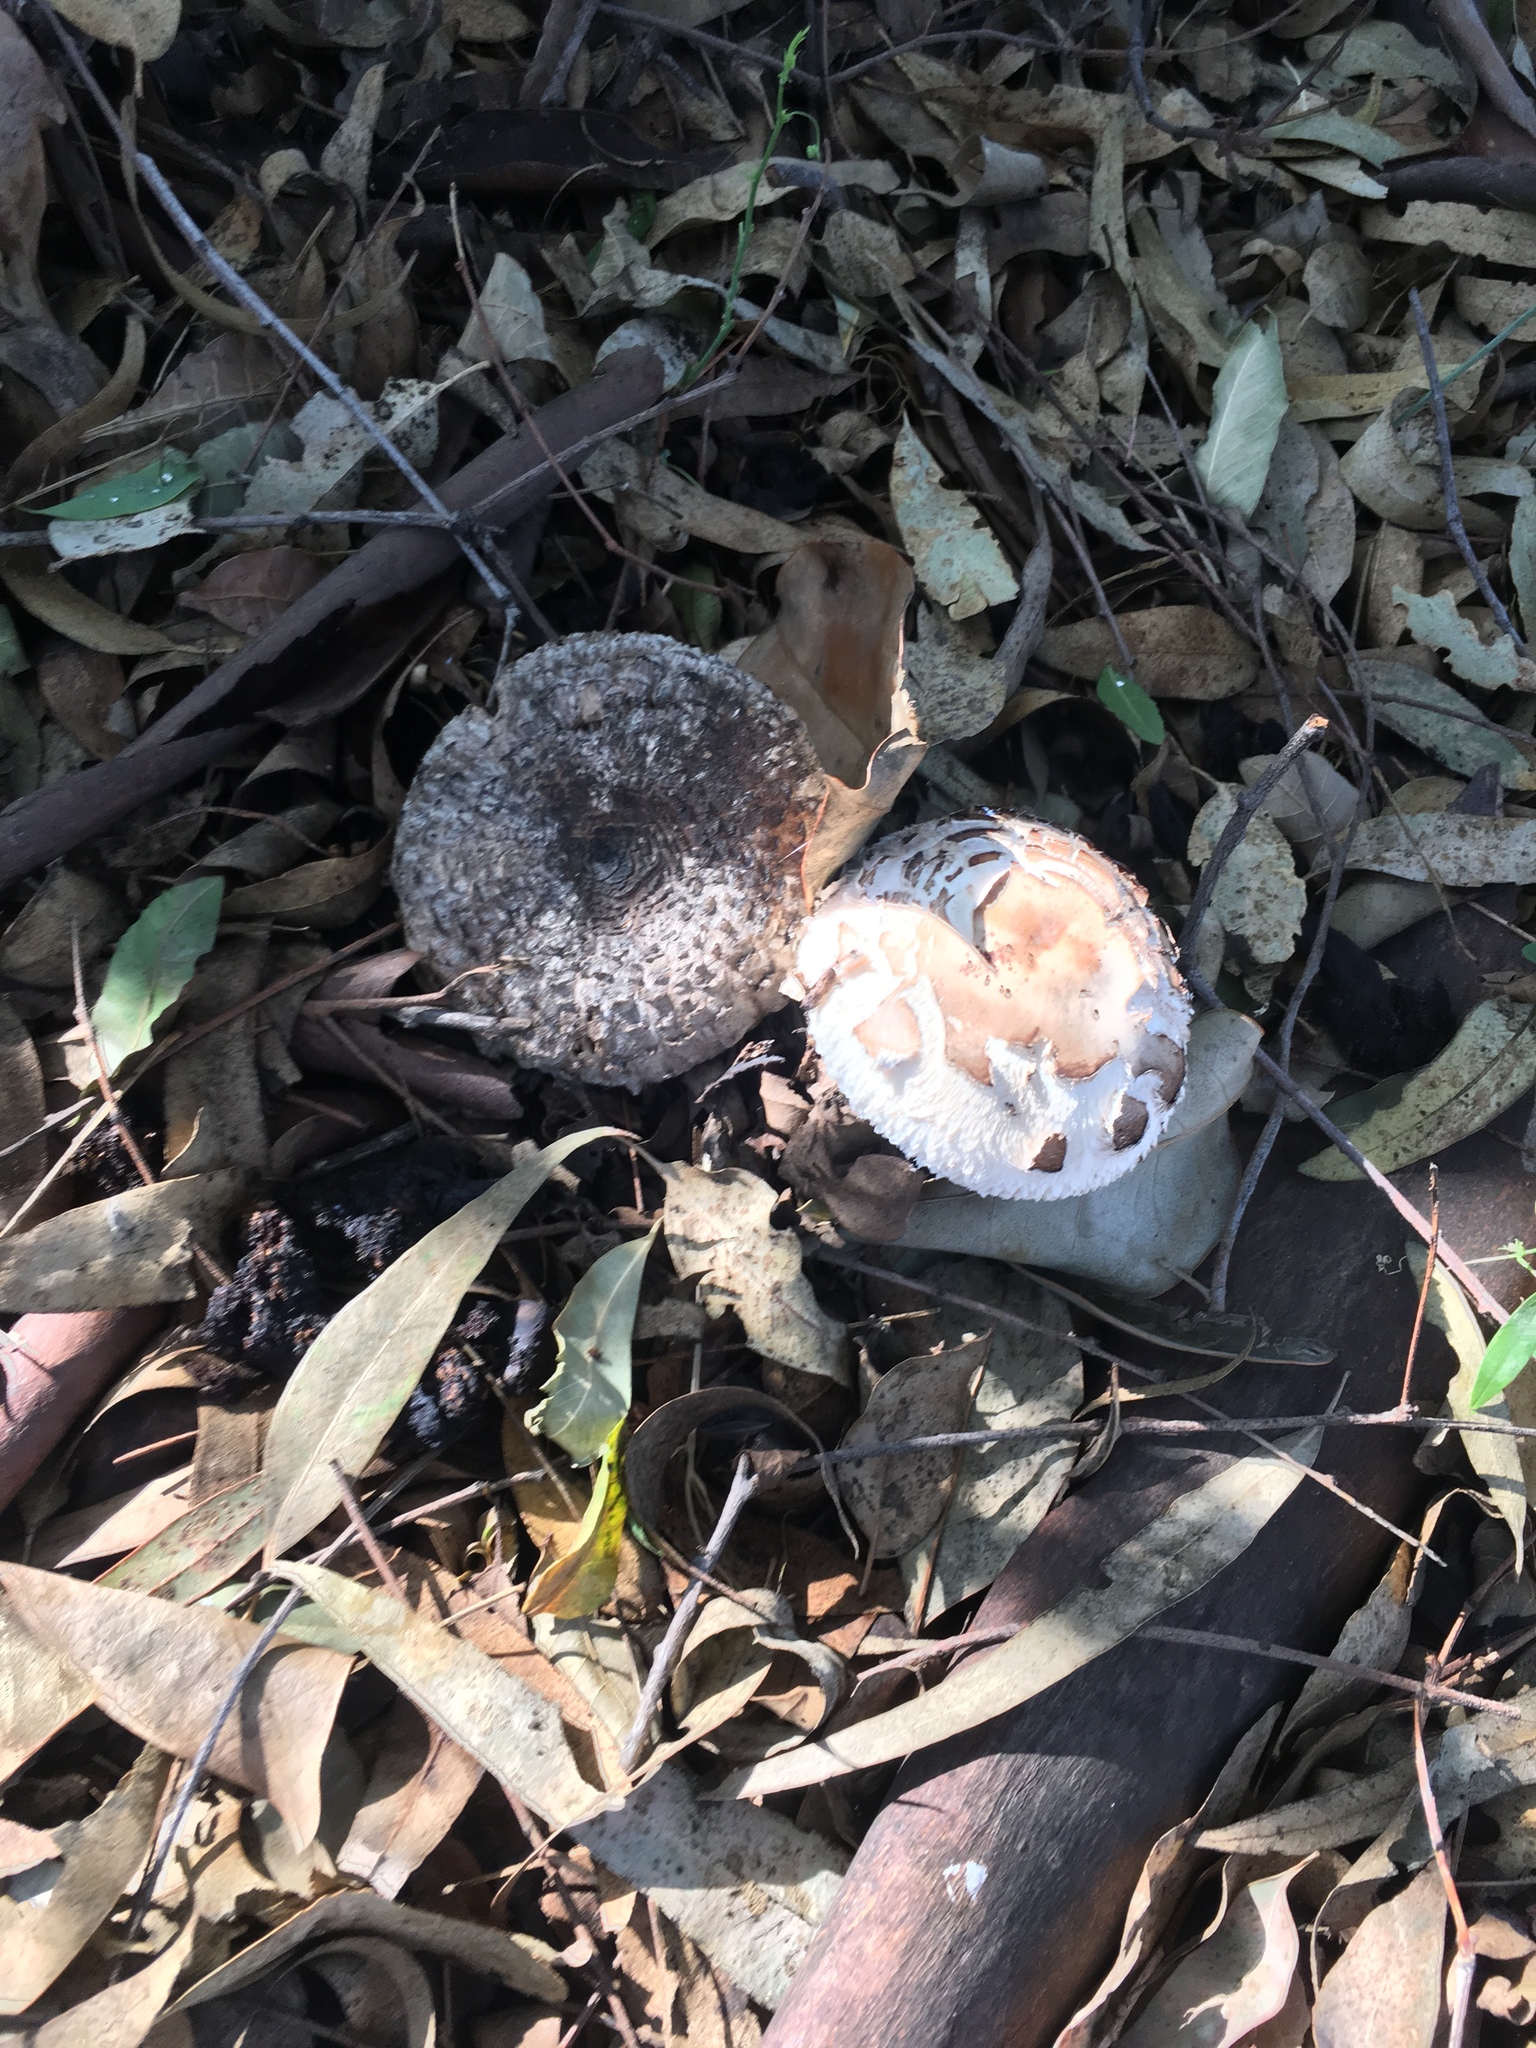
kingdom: Fungi
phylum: Basidiomycota
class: Agaricomycetes
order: Agaricales
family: Agaricaceae
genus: Chlorophyllum
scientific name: Chlorophyllum brunneum
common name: Brown parasol
